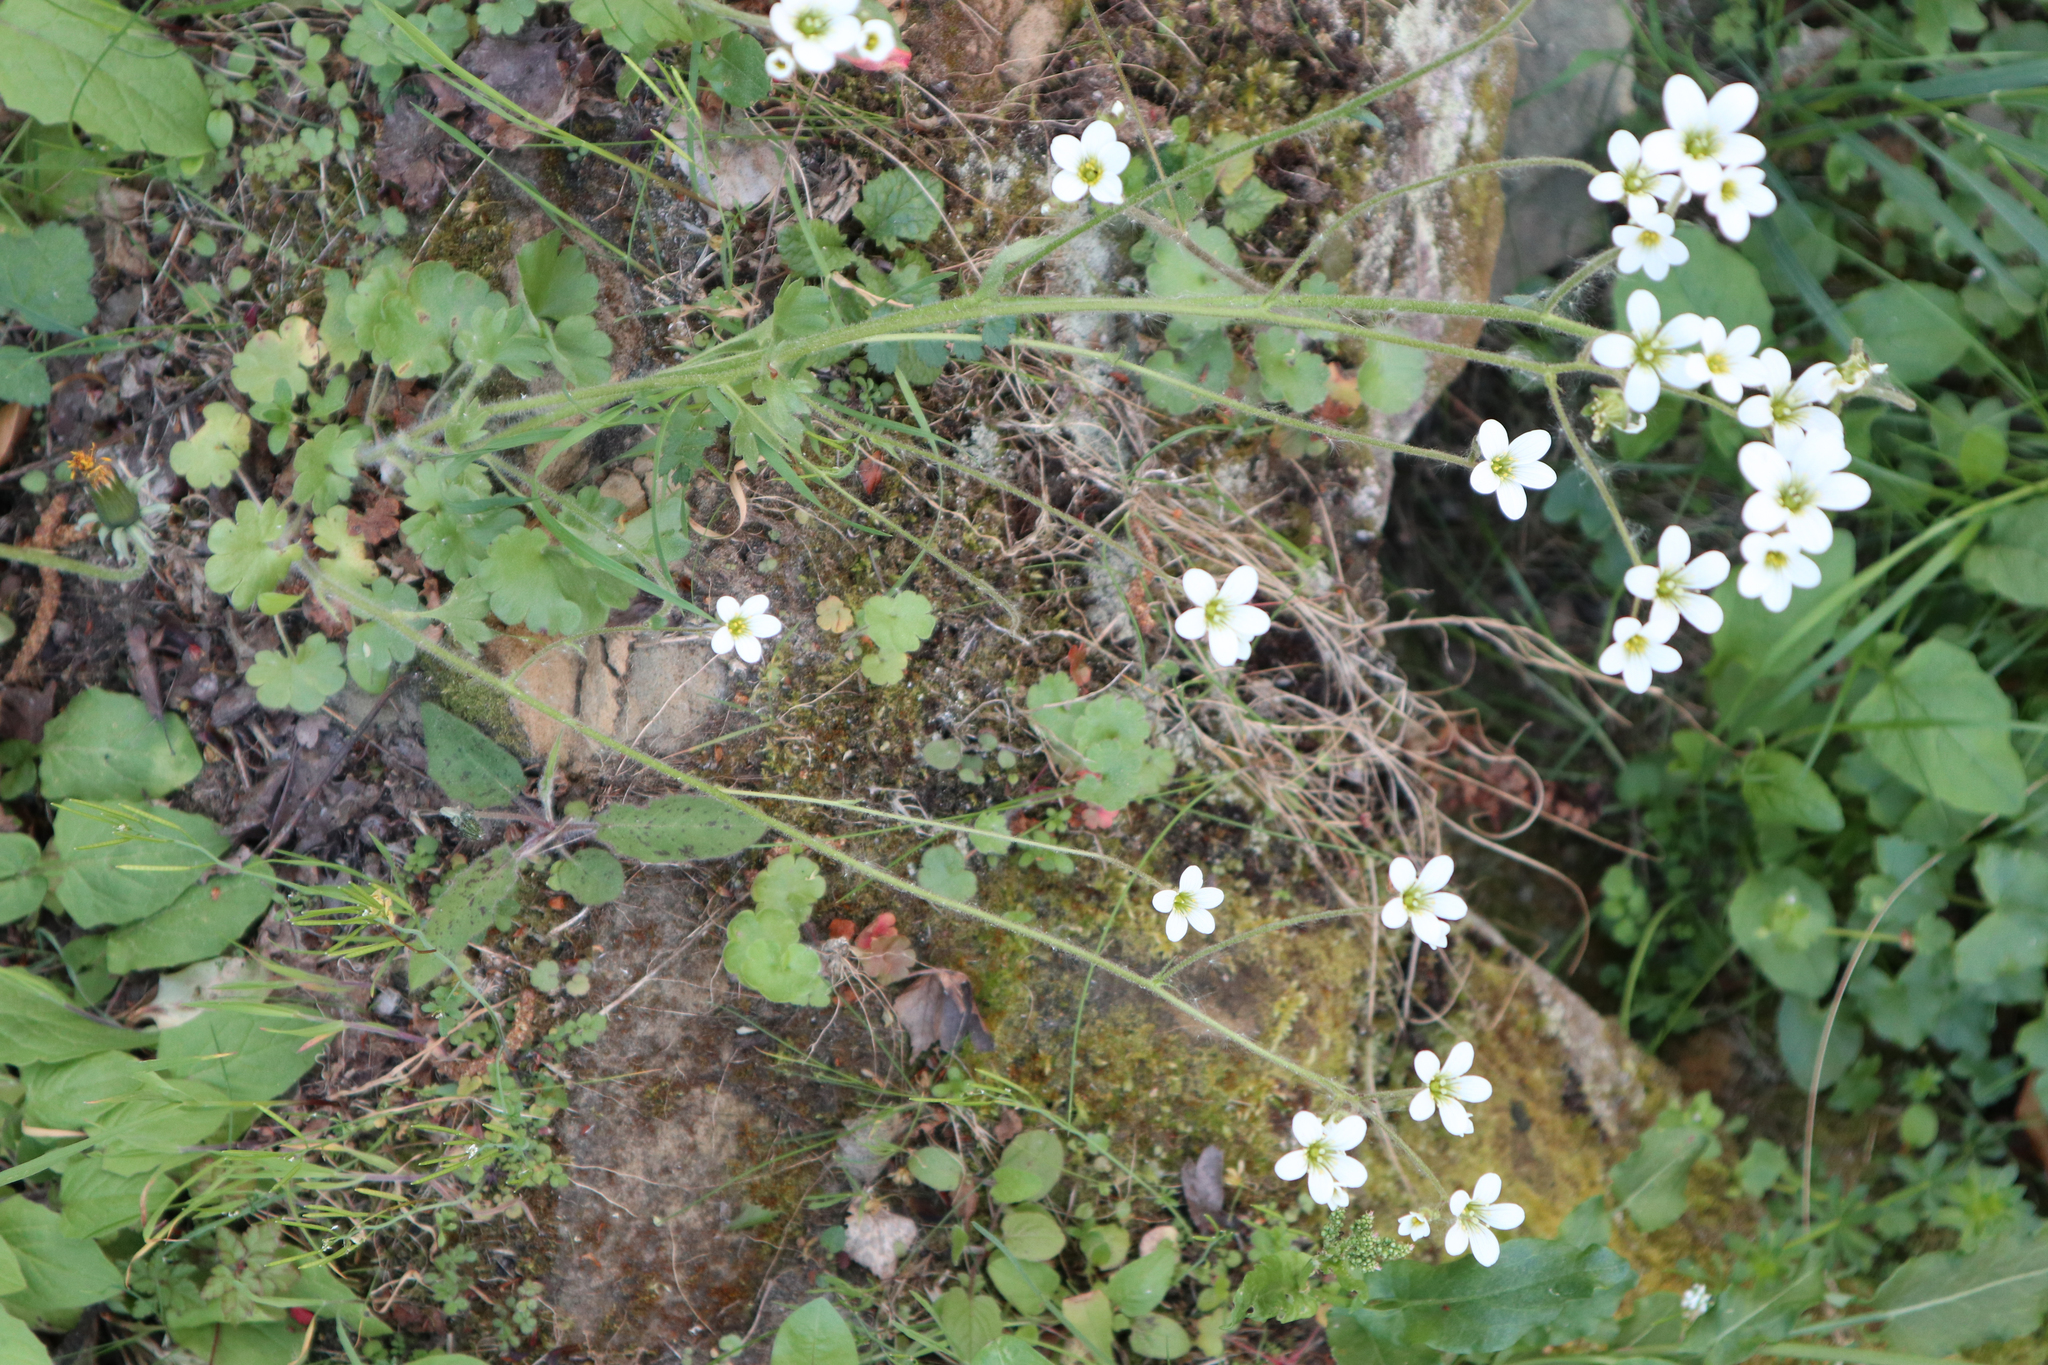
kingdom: Plantae
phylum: Tracheophyta
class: Magnoliopsida
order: Saxifragales
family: Saxifragaceae
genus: Saxifraga
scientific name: Saxifraga granulata
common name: Meadow saxifrage
